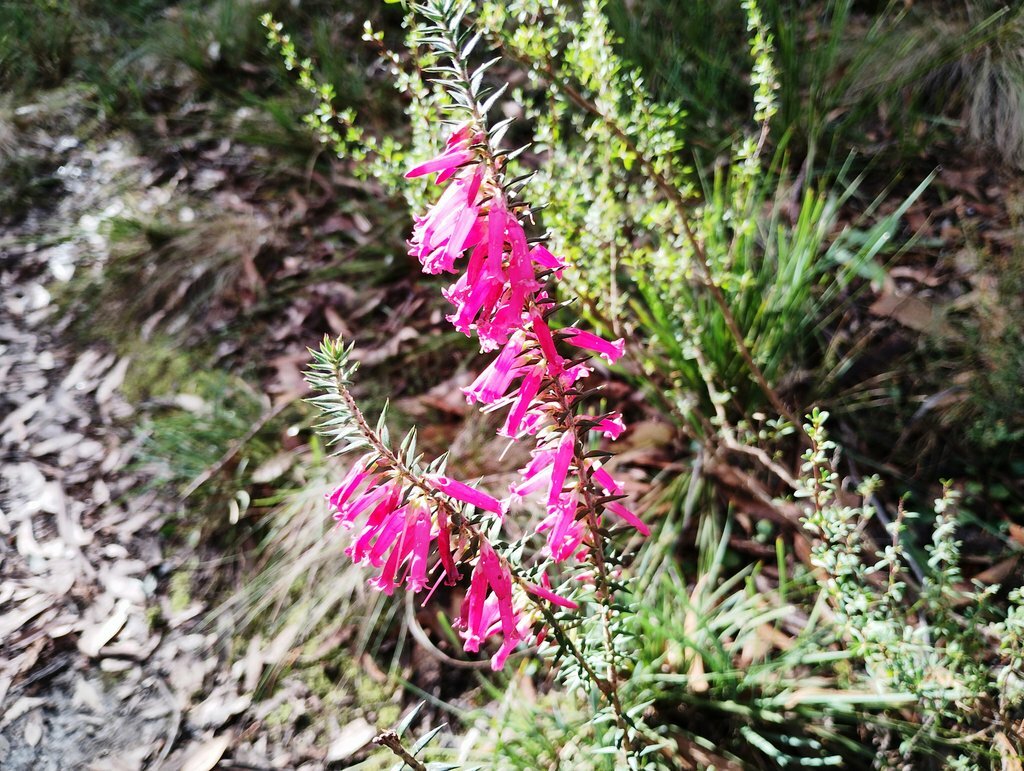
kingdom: Plantae
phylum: Tracheophyta
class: Magnoliopsida
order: Ericales
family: Ericaceae
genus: Epacris
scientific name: Epacris impressa
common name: Common-heath
